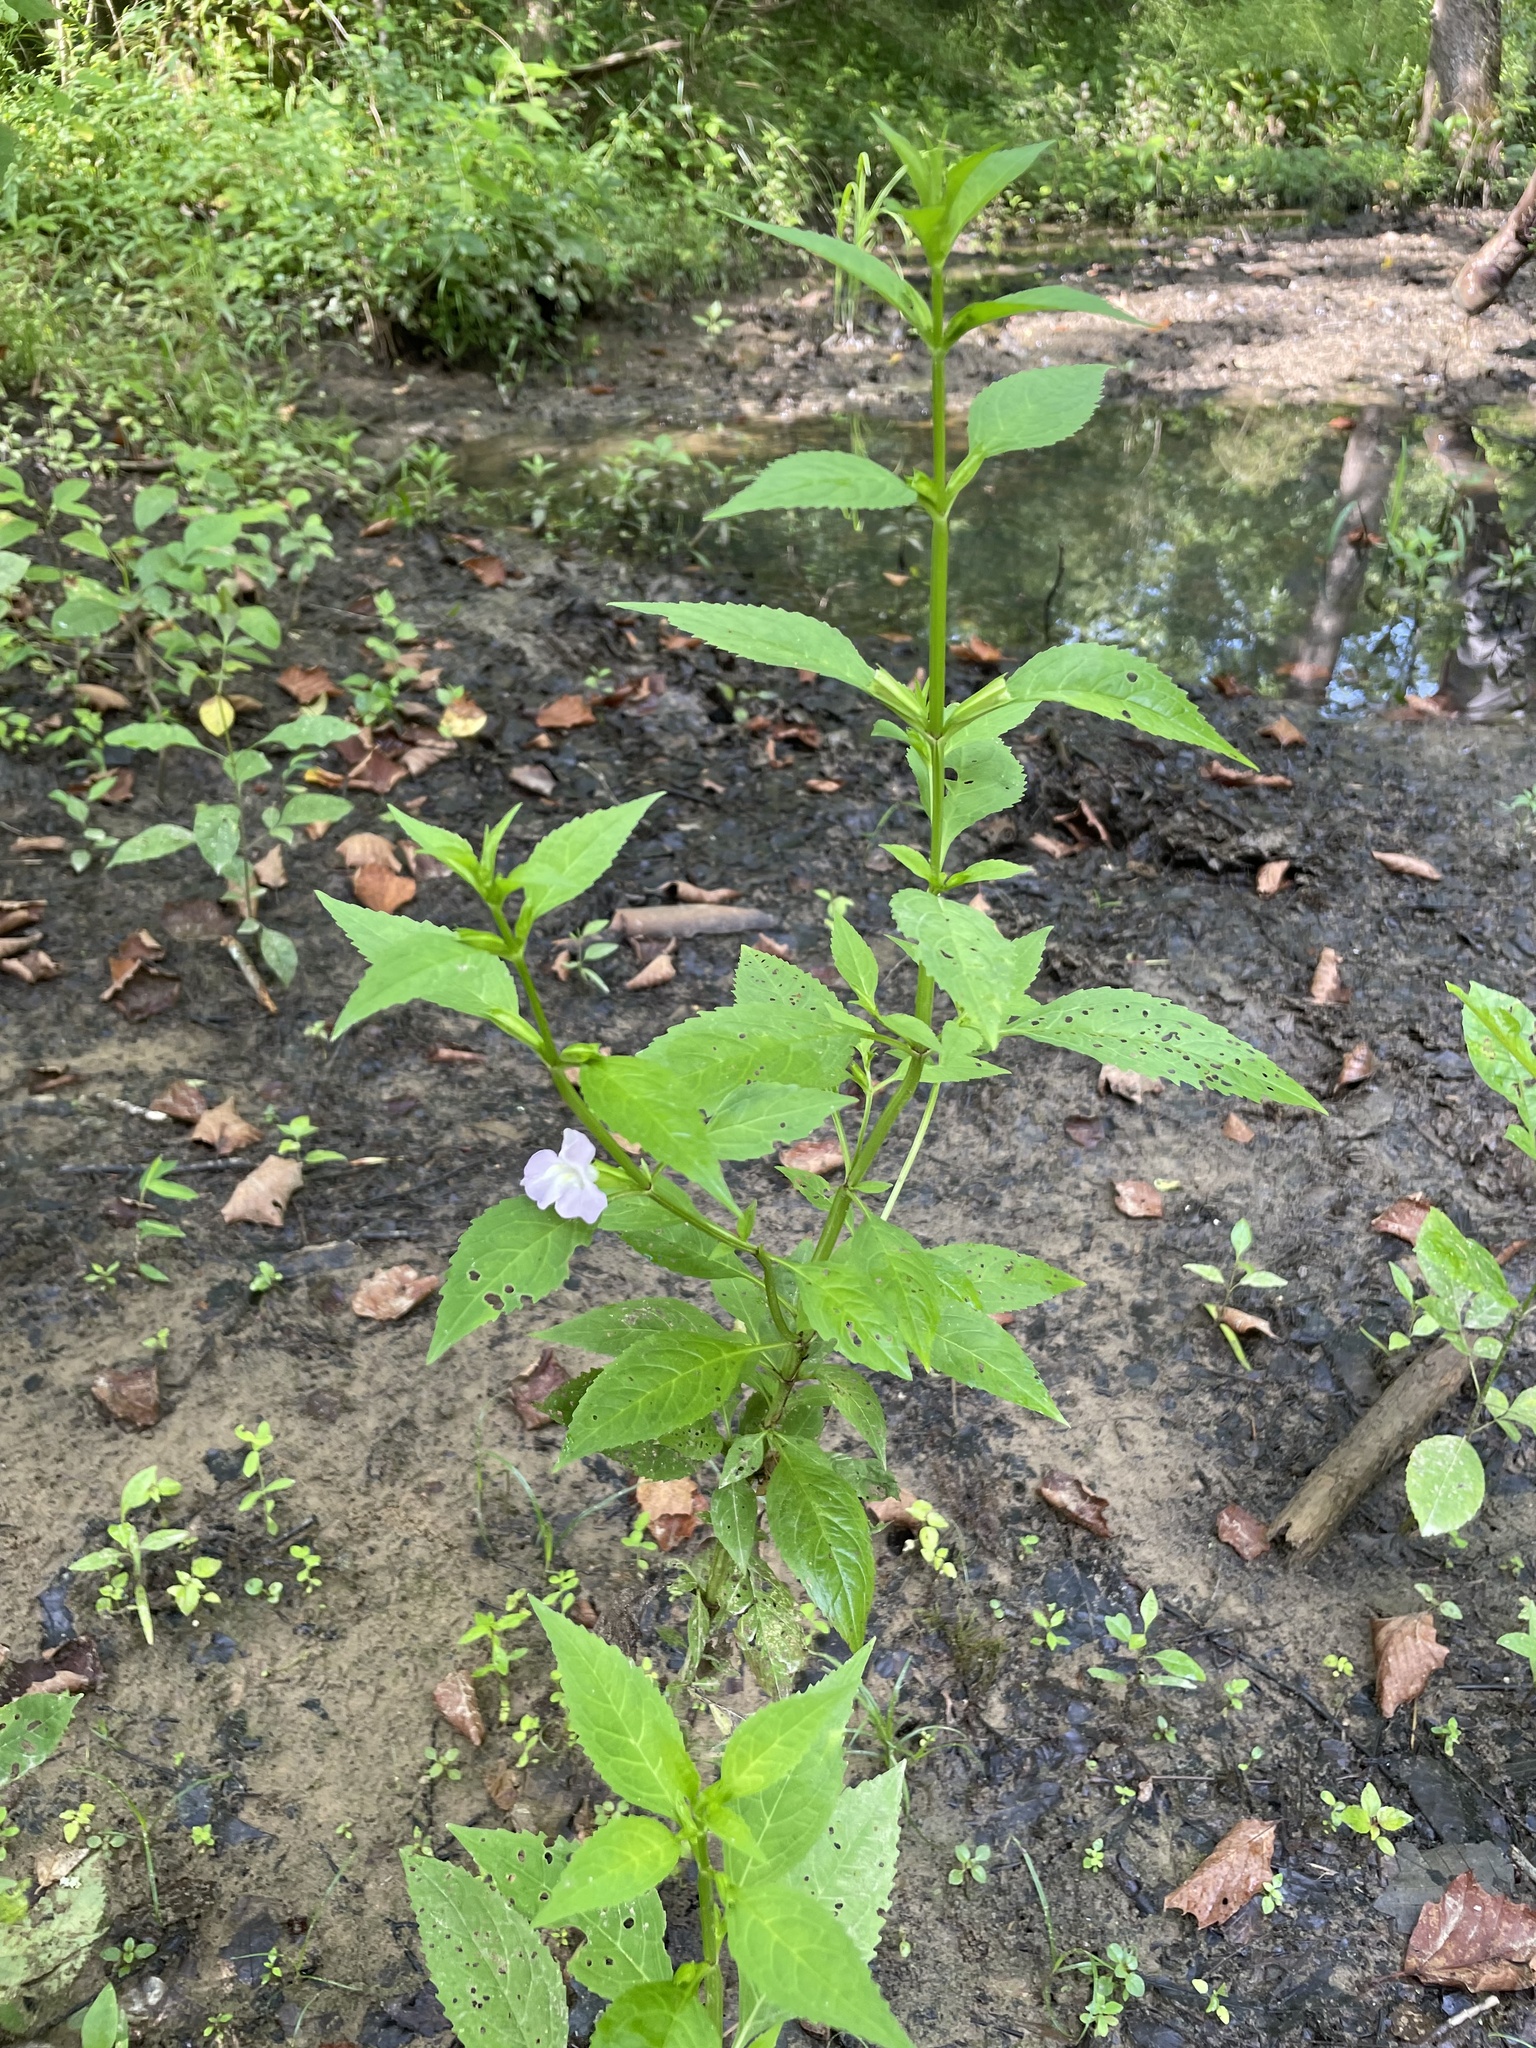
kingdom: Plantae
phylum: Tracheophyta
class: Magnoliopsida
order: Lamiales
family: Phrymaceae
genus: Mimulus
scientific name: Mimulus alatus
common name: Sharp-wing monkey-flower
